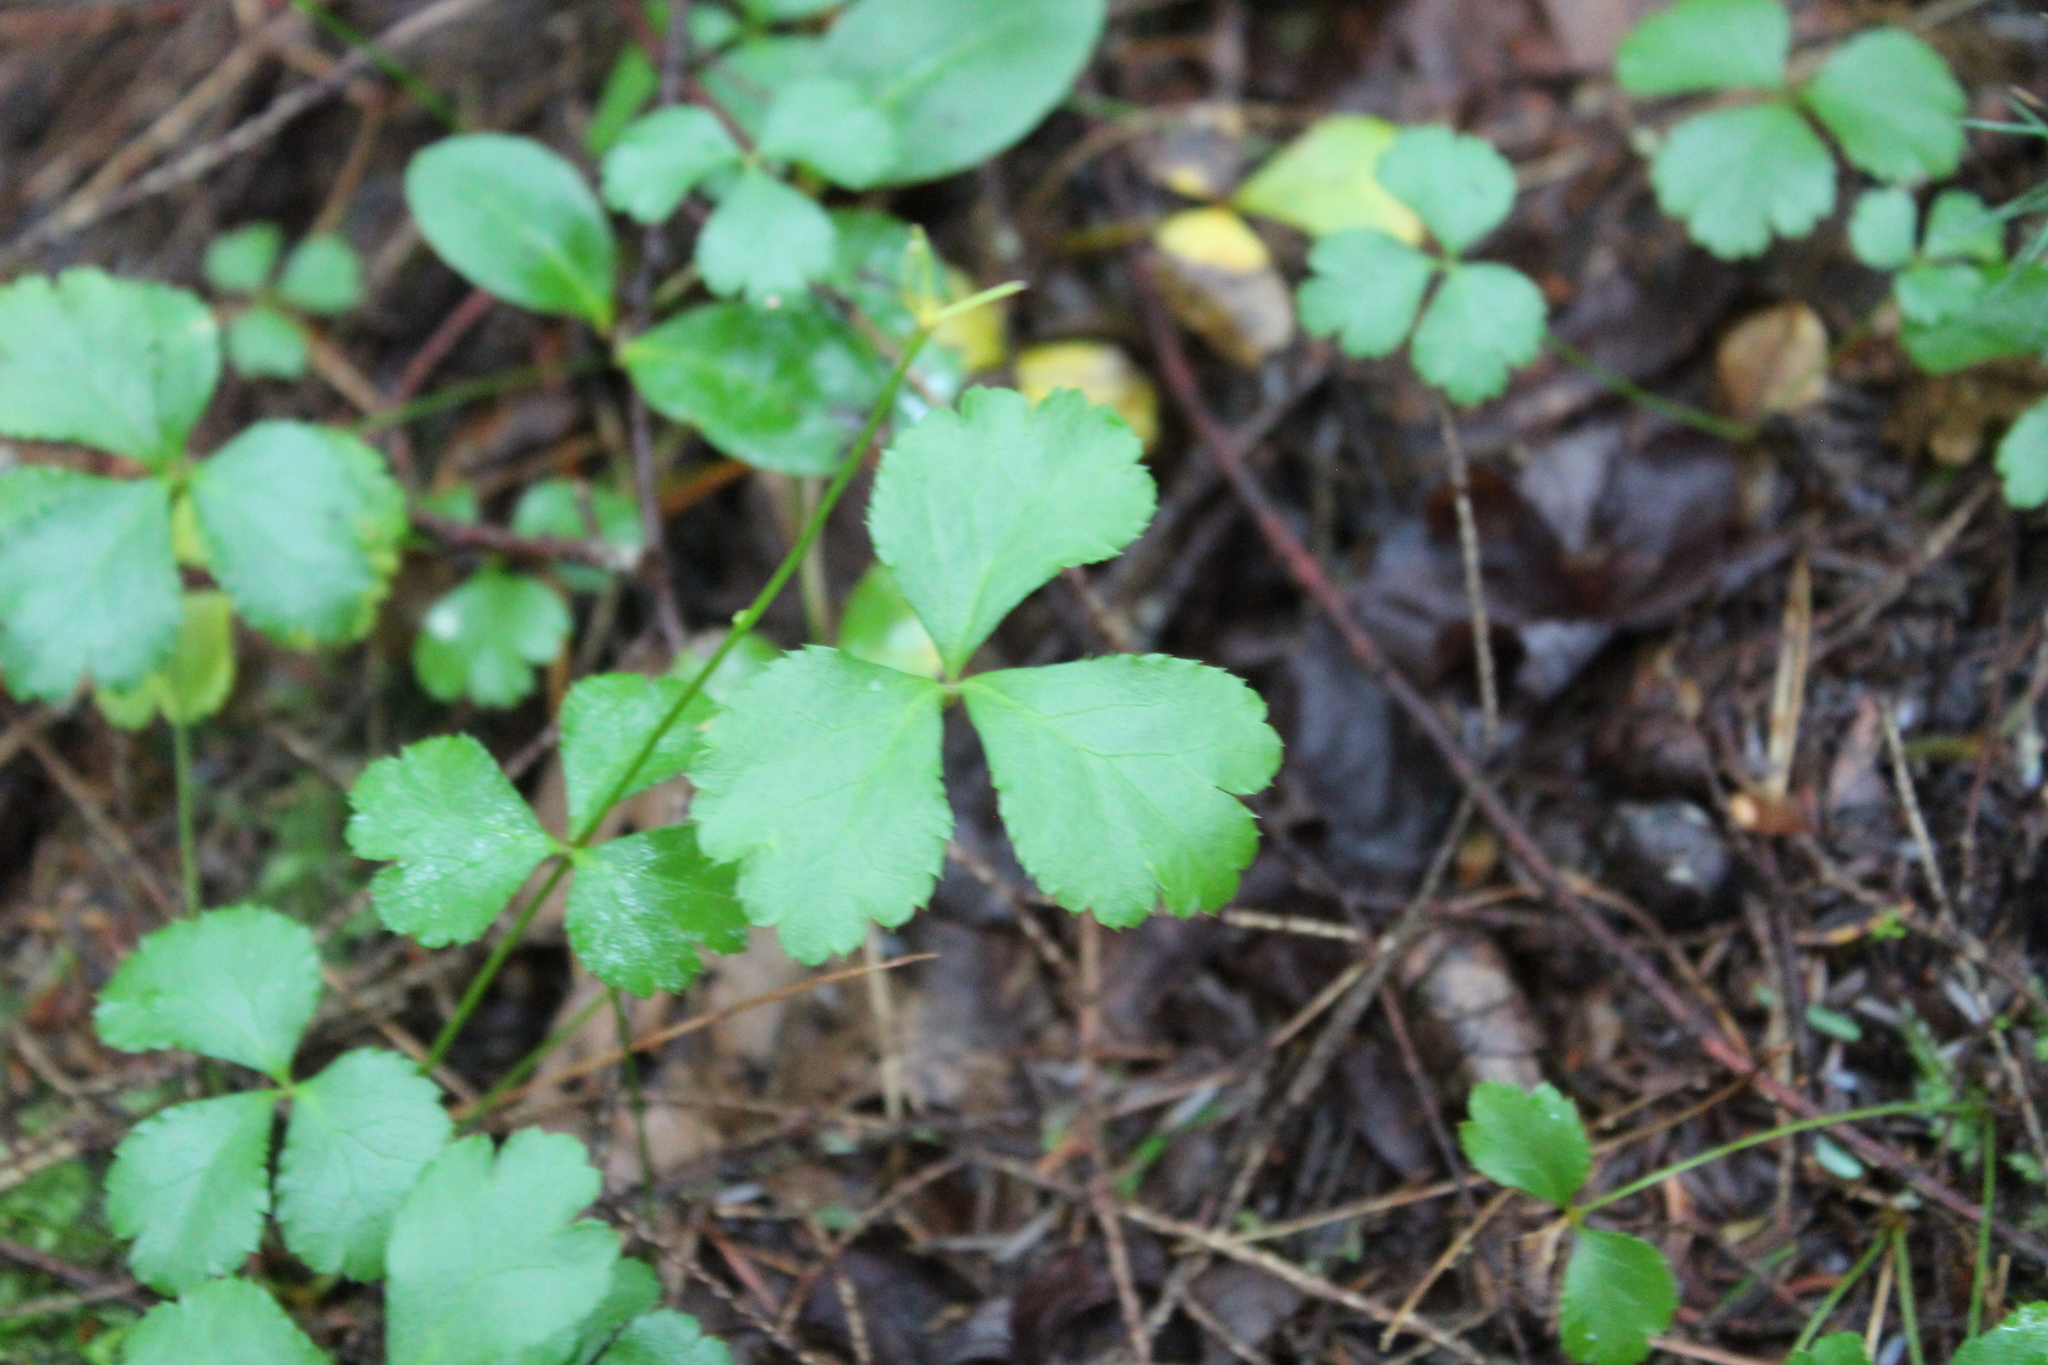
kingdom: Plantae
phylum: Tracheophyta
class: Magnoliopsida
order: Ranunculales
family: Ranunculaceae
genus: Coptis
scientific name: Coptis trifolia
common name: Canker-root
